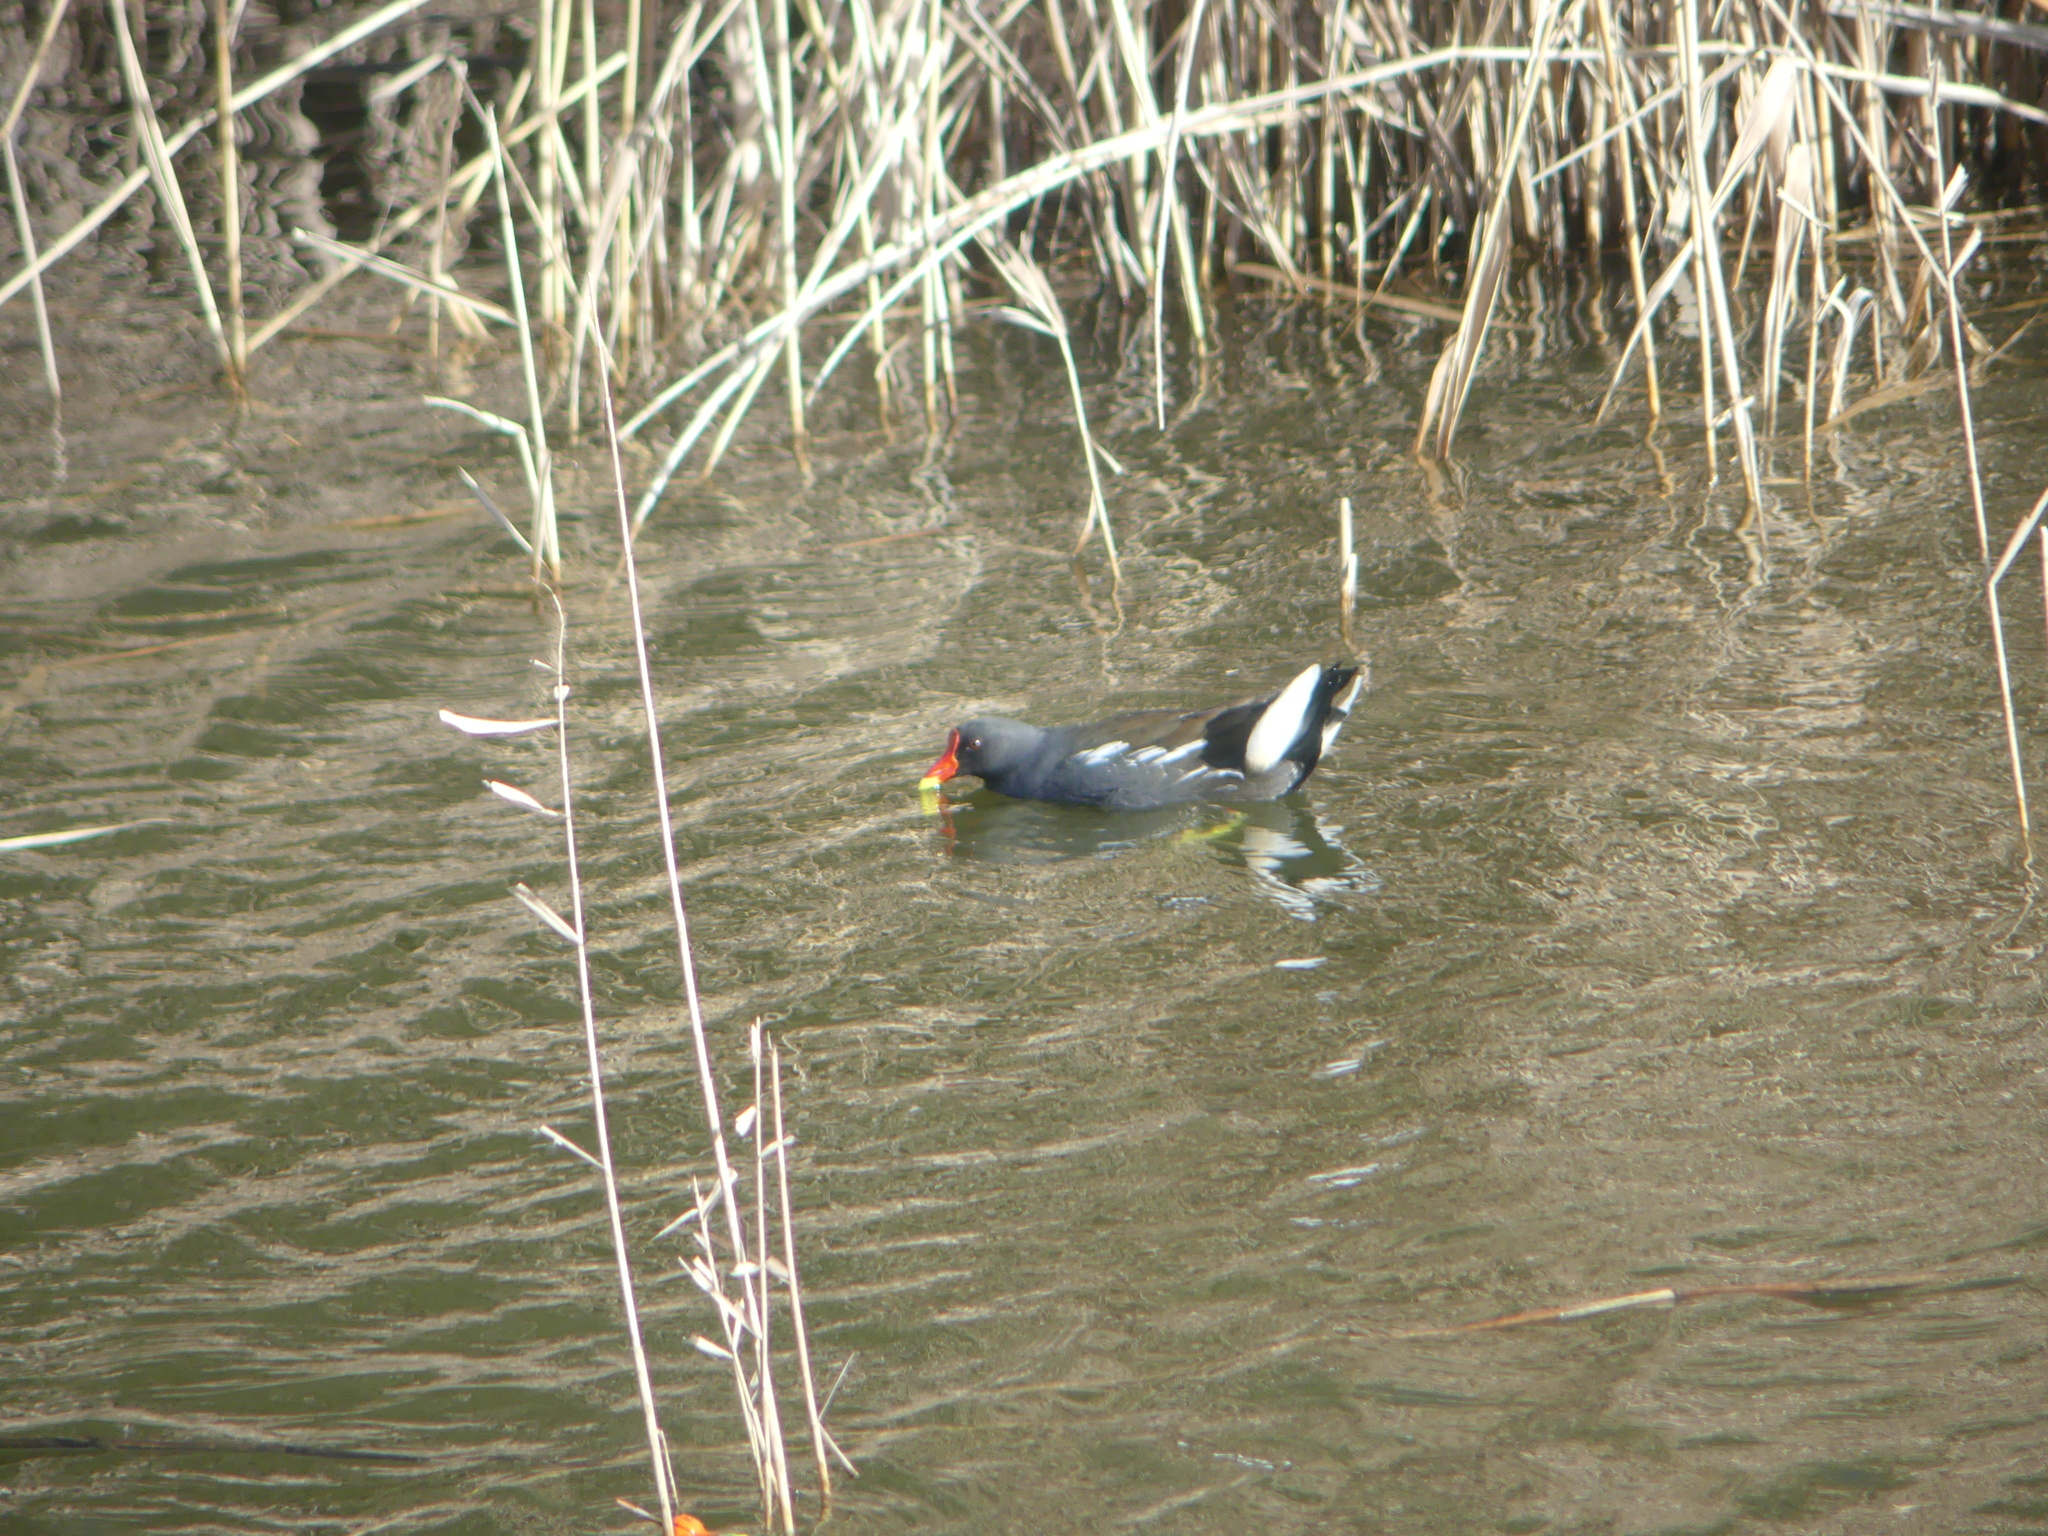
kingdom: Animalia
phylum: Chordata
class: Aves
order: Gruiformes
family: Rallidae
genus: Gallinula
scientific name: Gallinula chloropus
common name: Common moorhen
